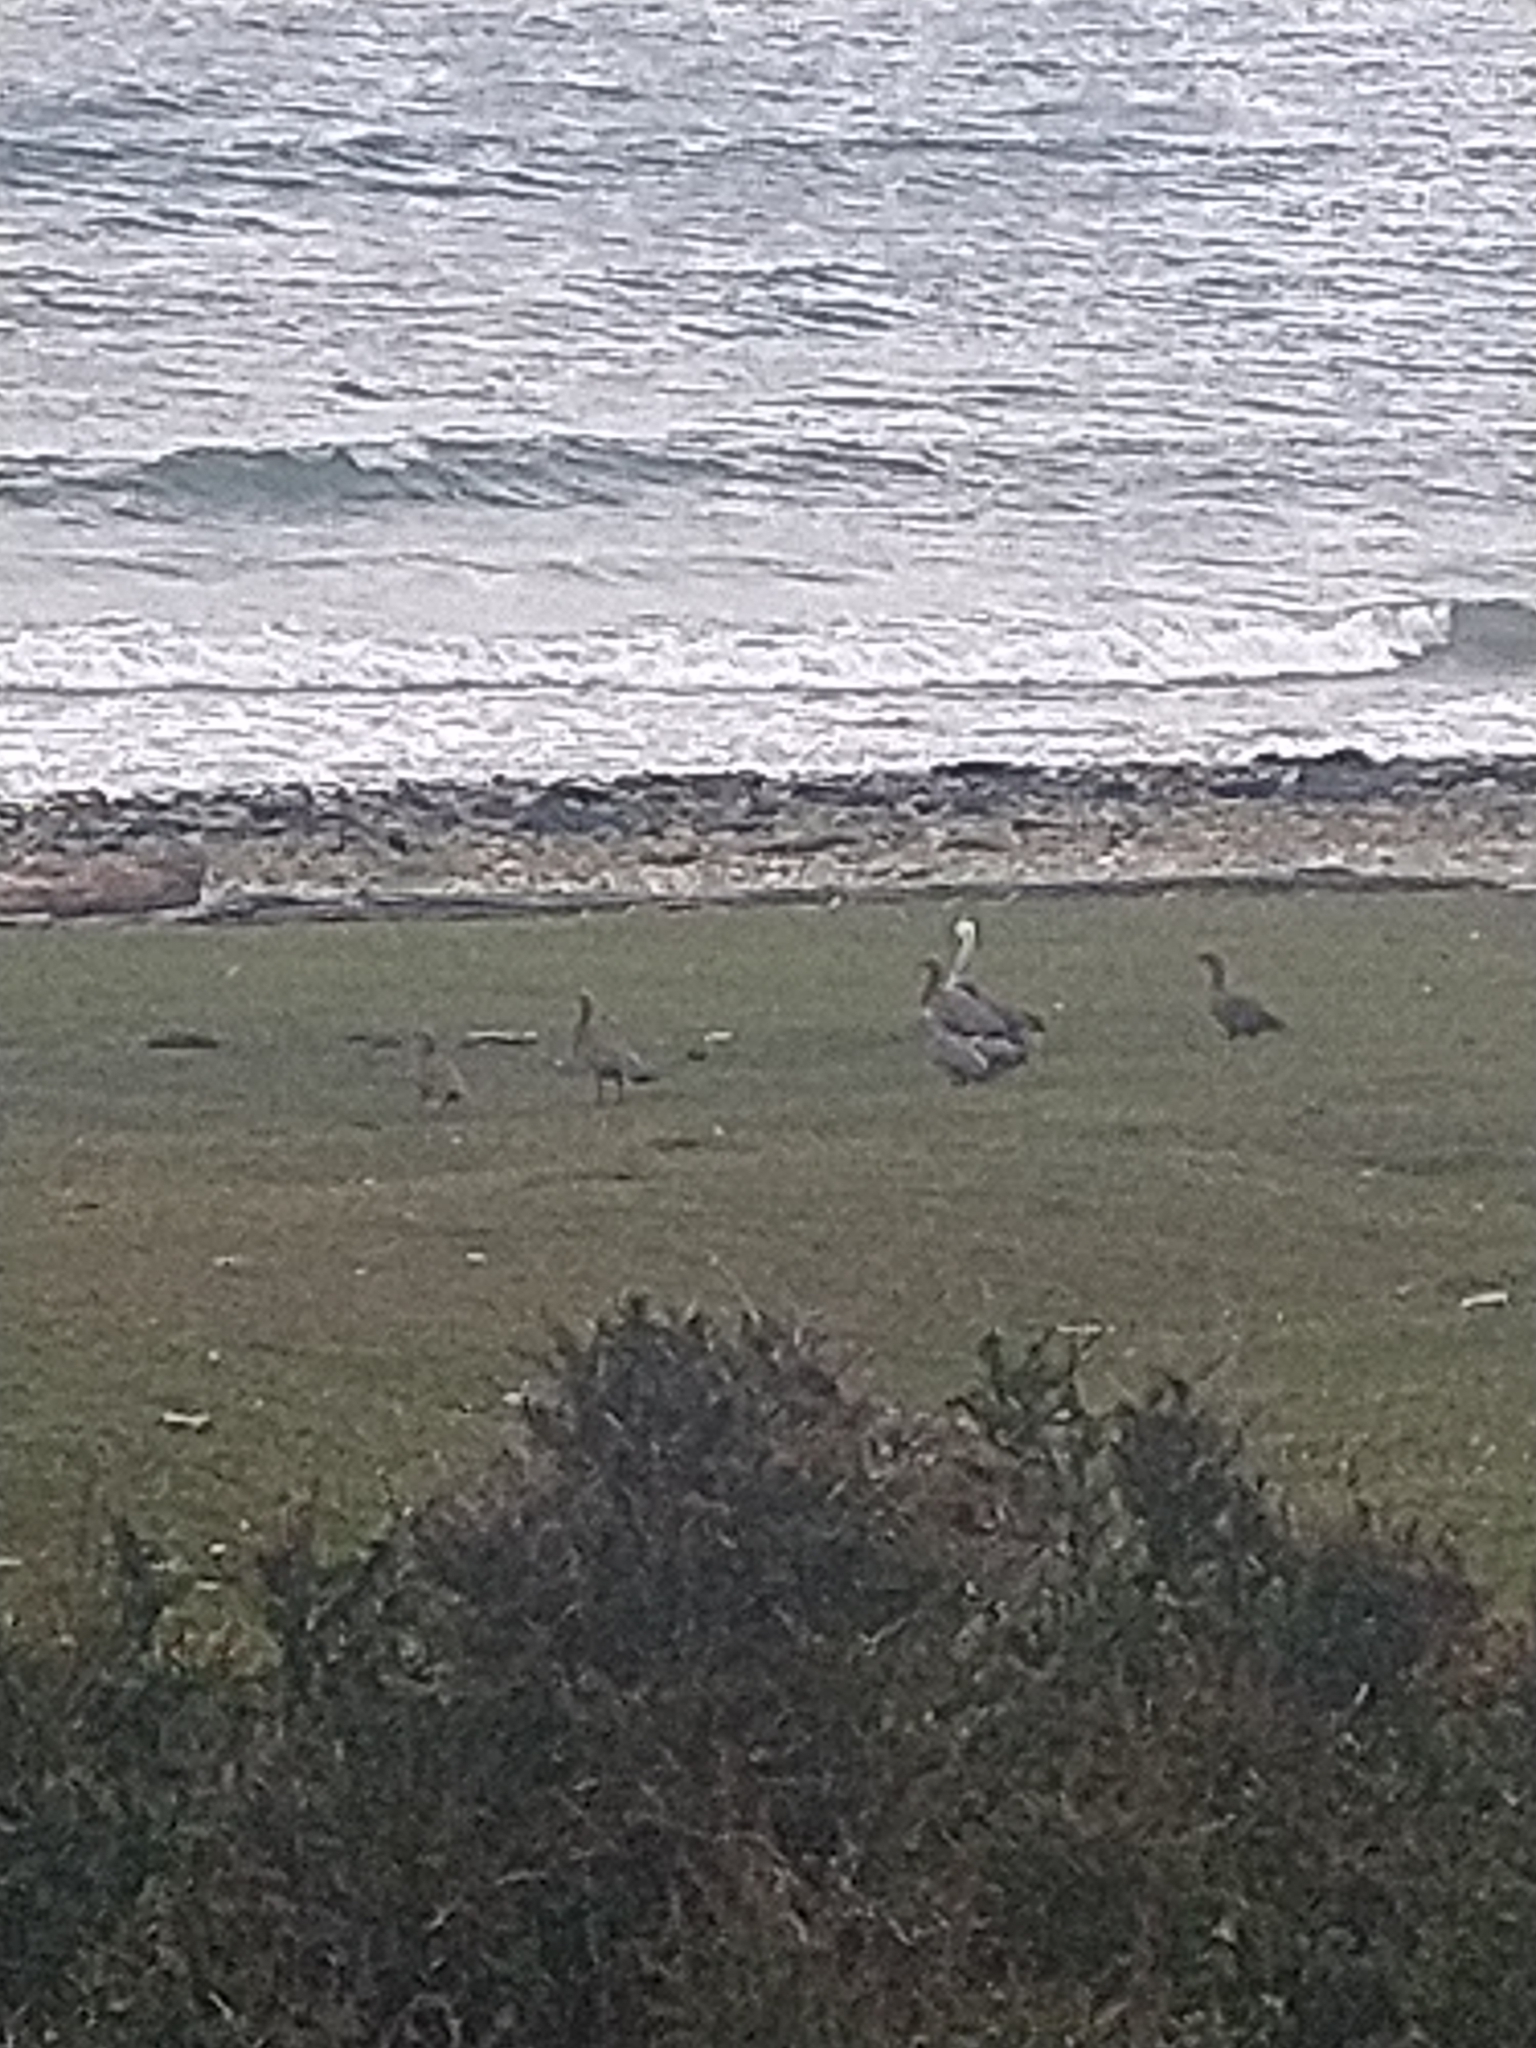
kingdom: Animalia
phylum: Chordata
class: Aves
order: Anseriformes
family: Anatidae
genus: Chloephaga
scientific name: Chloephaga picta
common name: Upland goose
